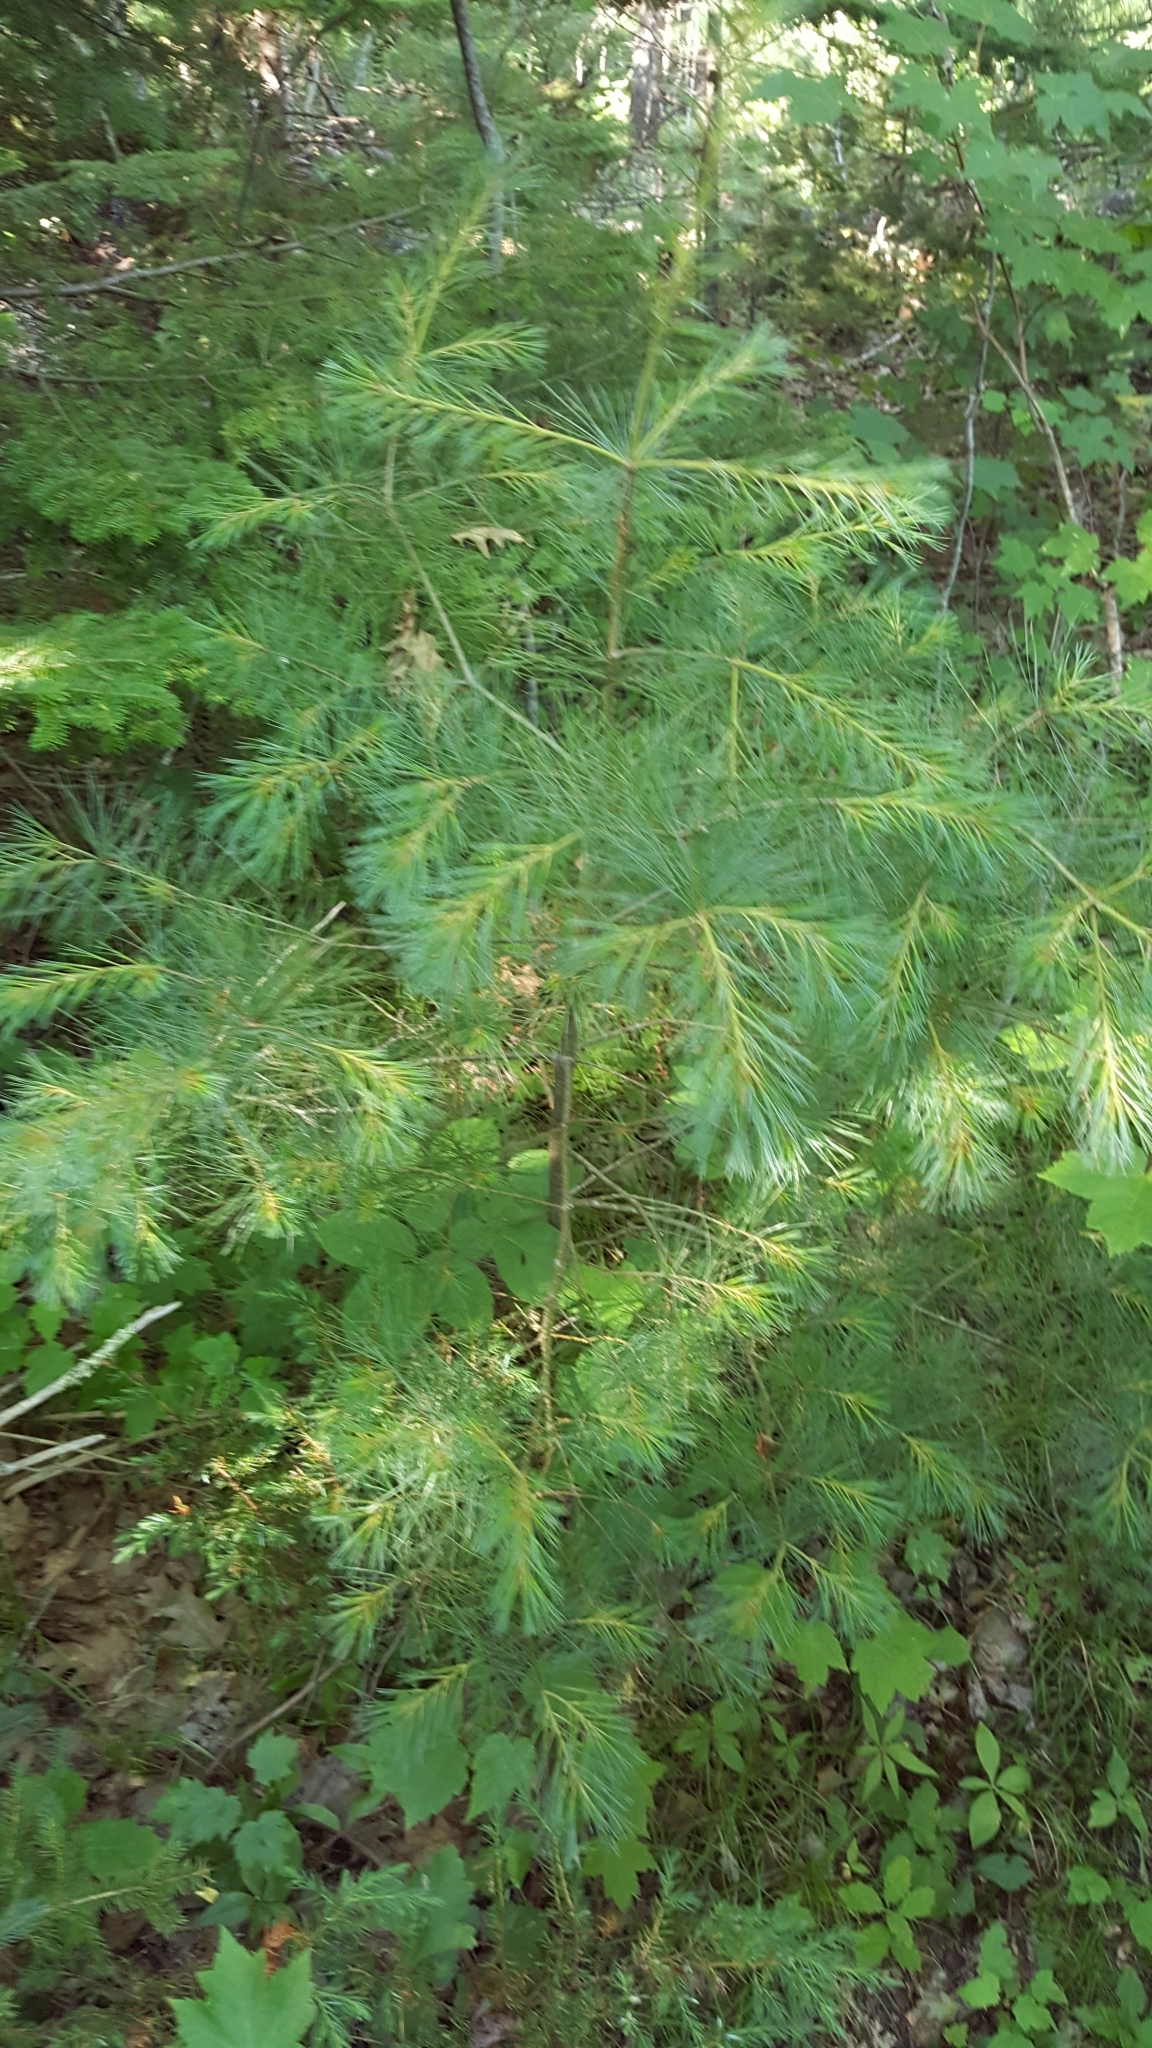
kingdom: Plantae
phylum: Tracheophyta
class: Pinopsida
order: Pinales
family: Pinaceae
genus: Pinus
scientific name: Pinus strobus
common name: Weymouth pine
